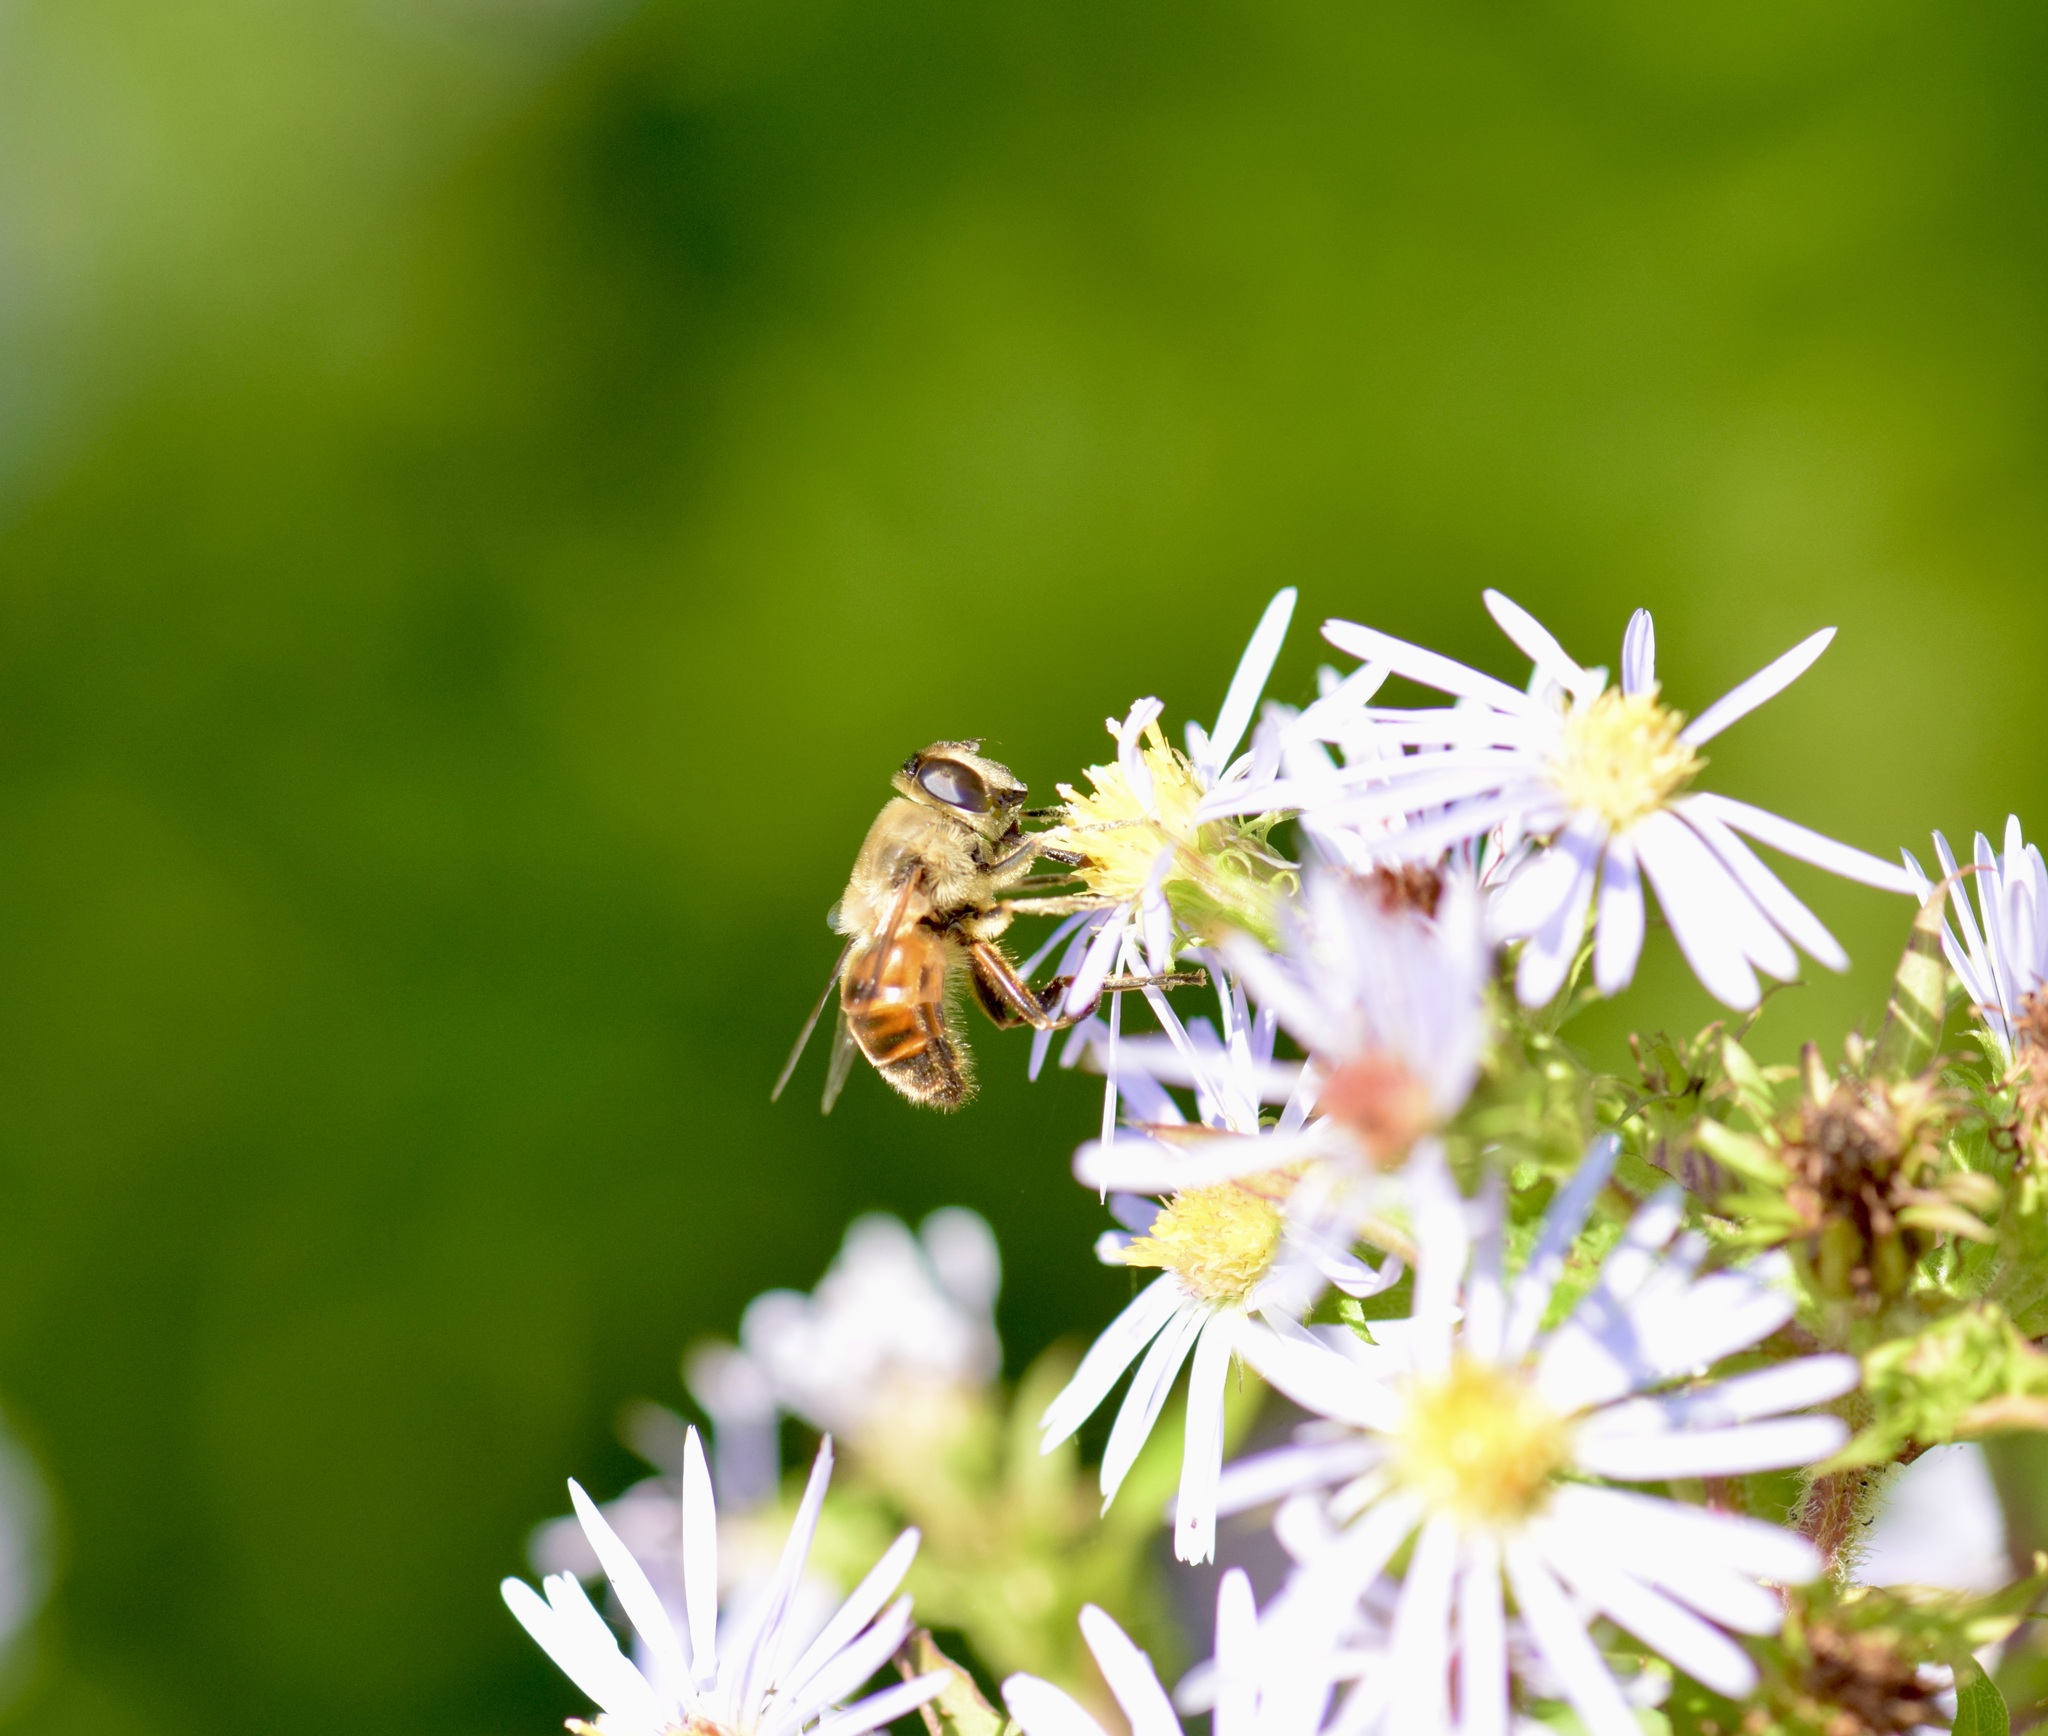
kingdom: Animalia
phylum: Arthropoda
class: Insecta
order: Diptera
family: Syrphidae
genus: Eristalis
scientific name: Eristalis tenax
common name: Drone fly
